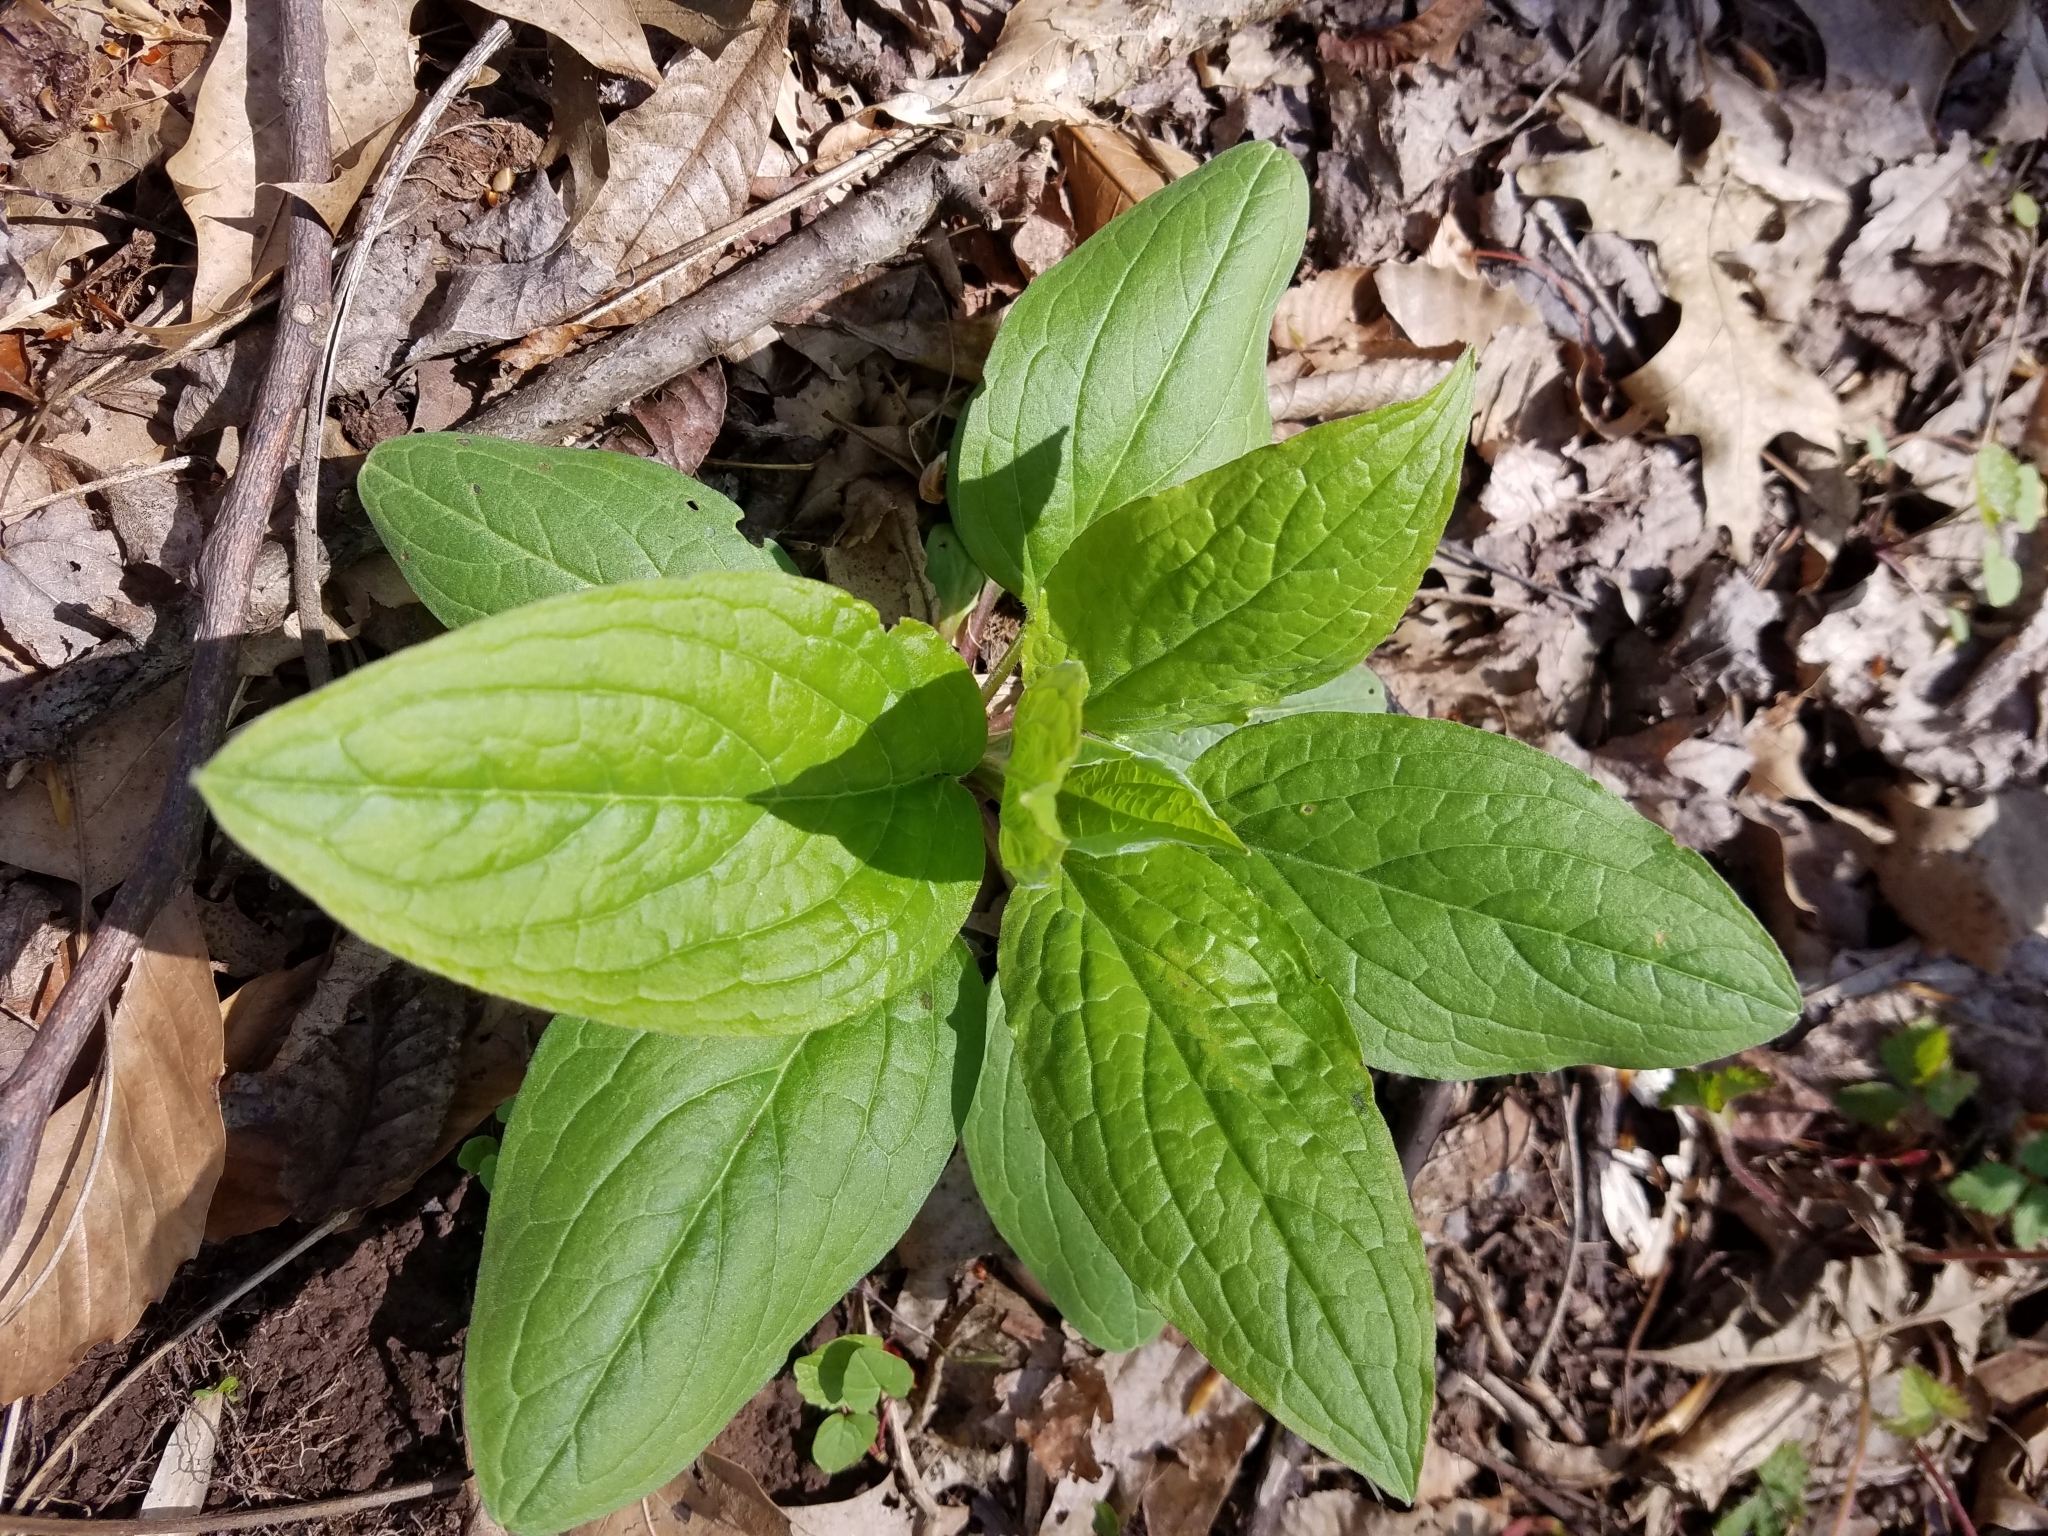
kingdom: Plantae
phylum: Tracheophyta
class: Magnoliopsida
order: Boraginales
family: Boraginaceae
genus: Hackelia
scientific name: Hackelia virginiana
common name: Beggar's-lice
